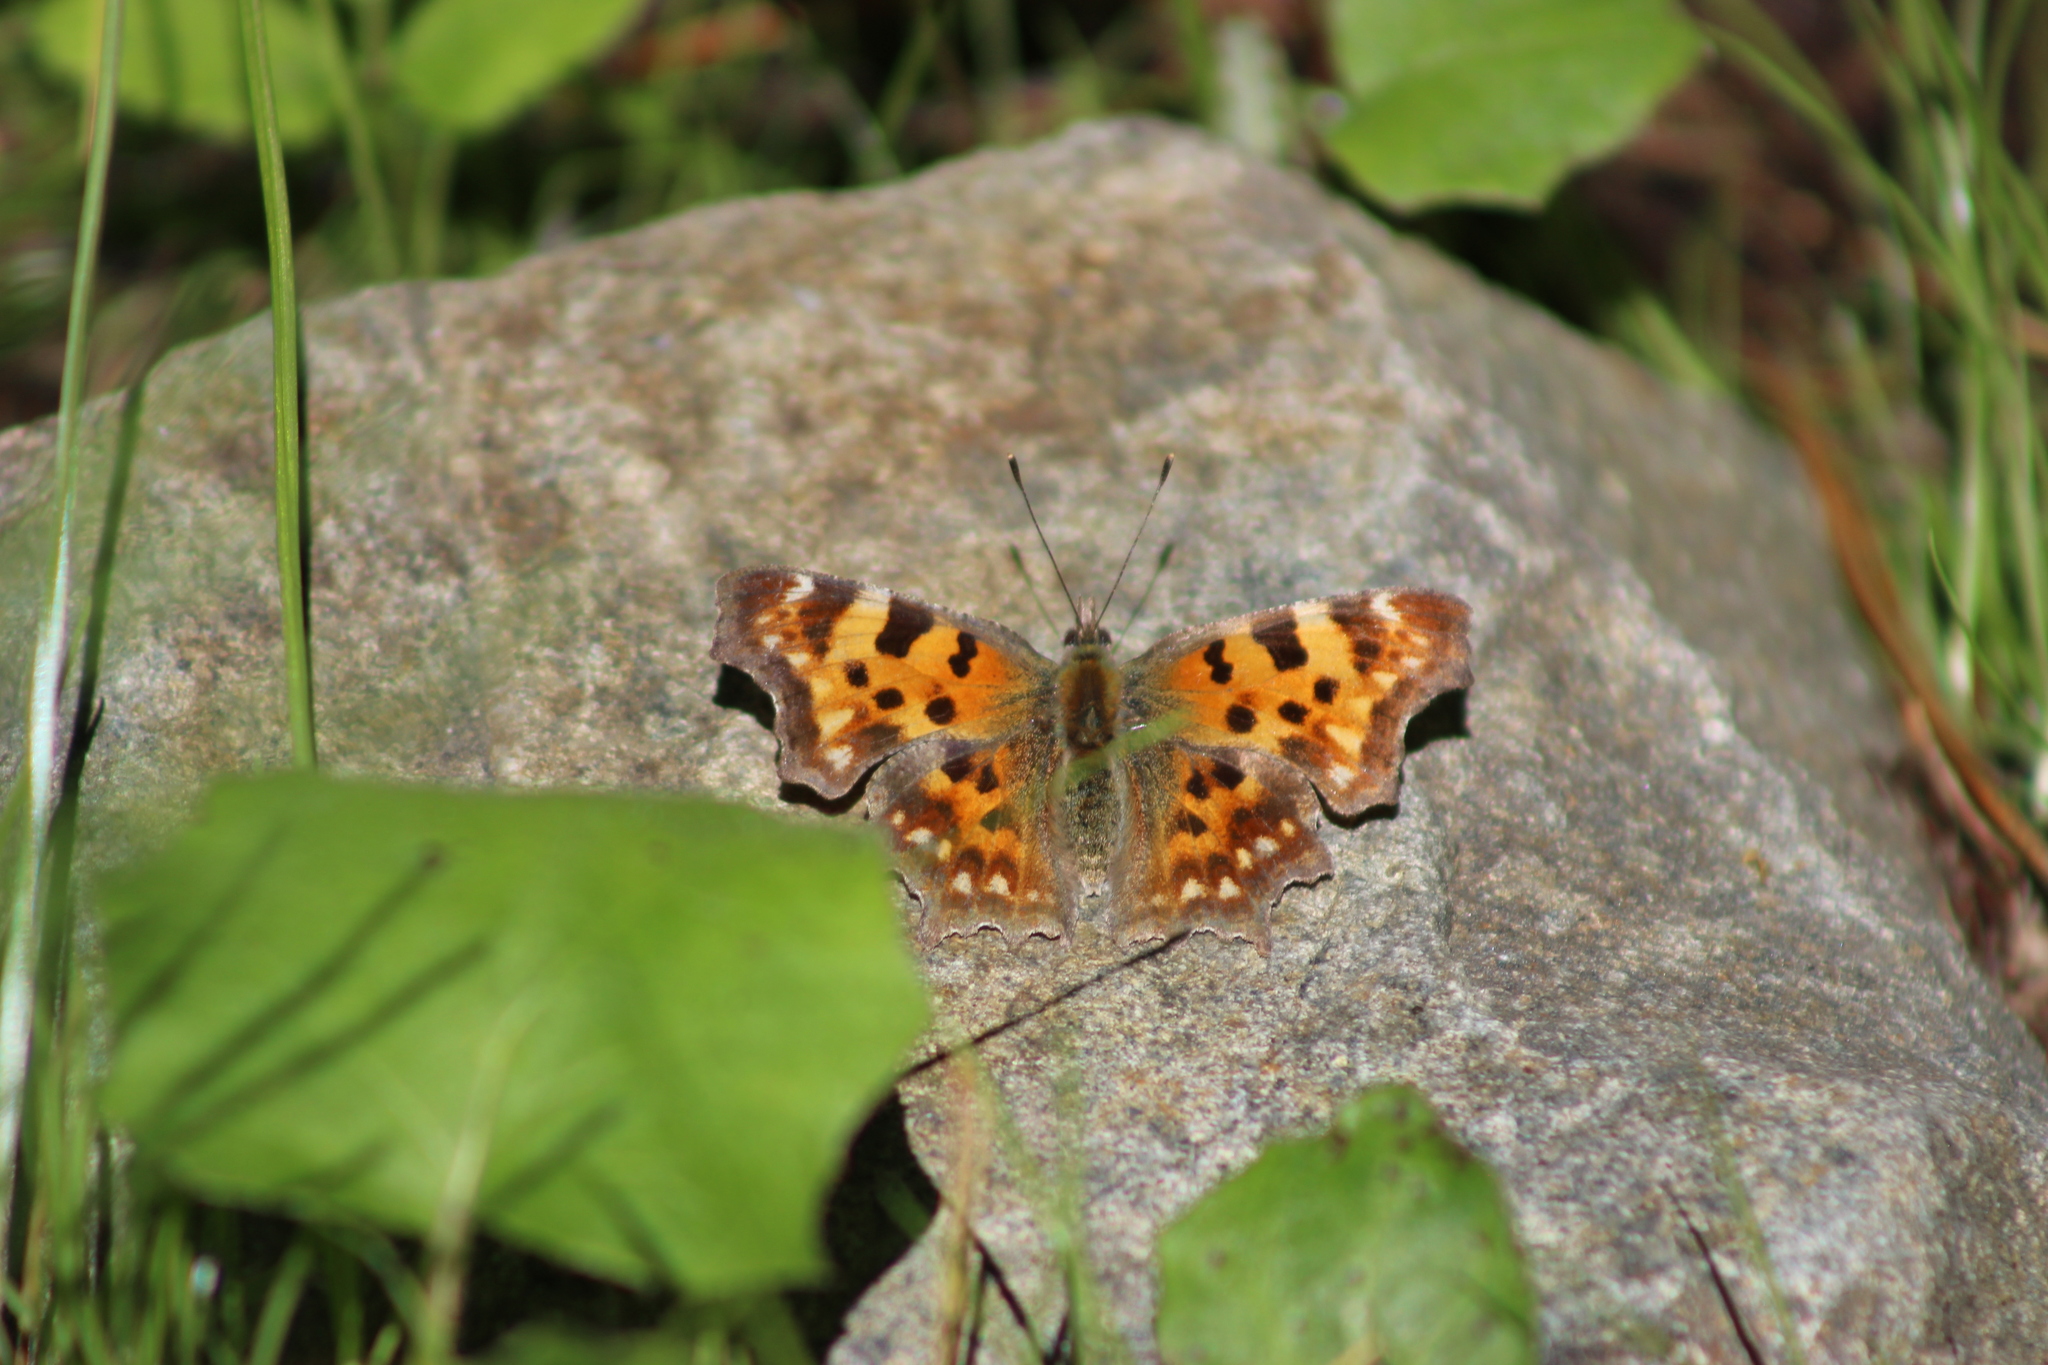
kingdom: Animalia
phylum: Arthropoda
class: Insecta
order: Lepidoptera
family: Nymphalidae
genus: Polygonia
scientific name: Polygonia c-album
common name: Comma
